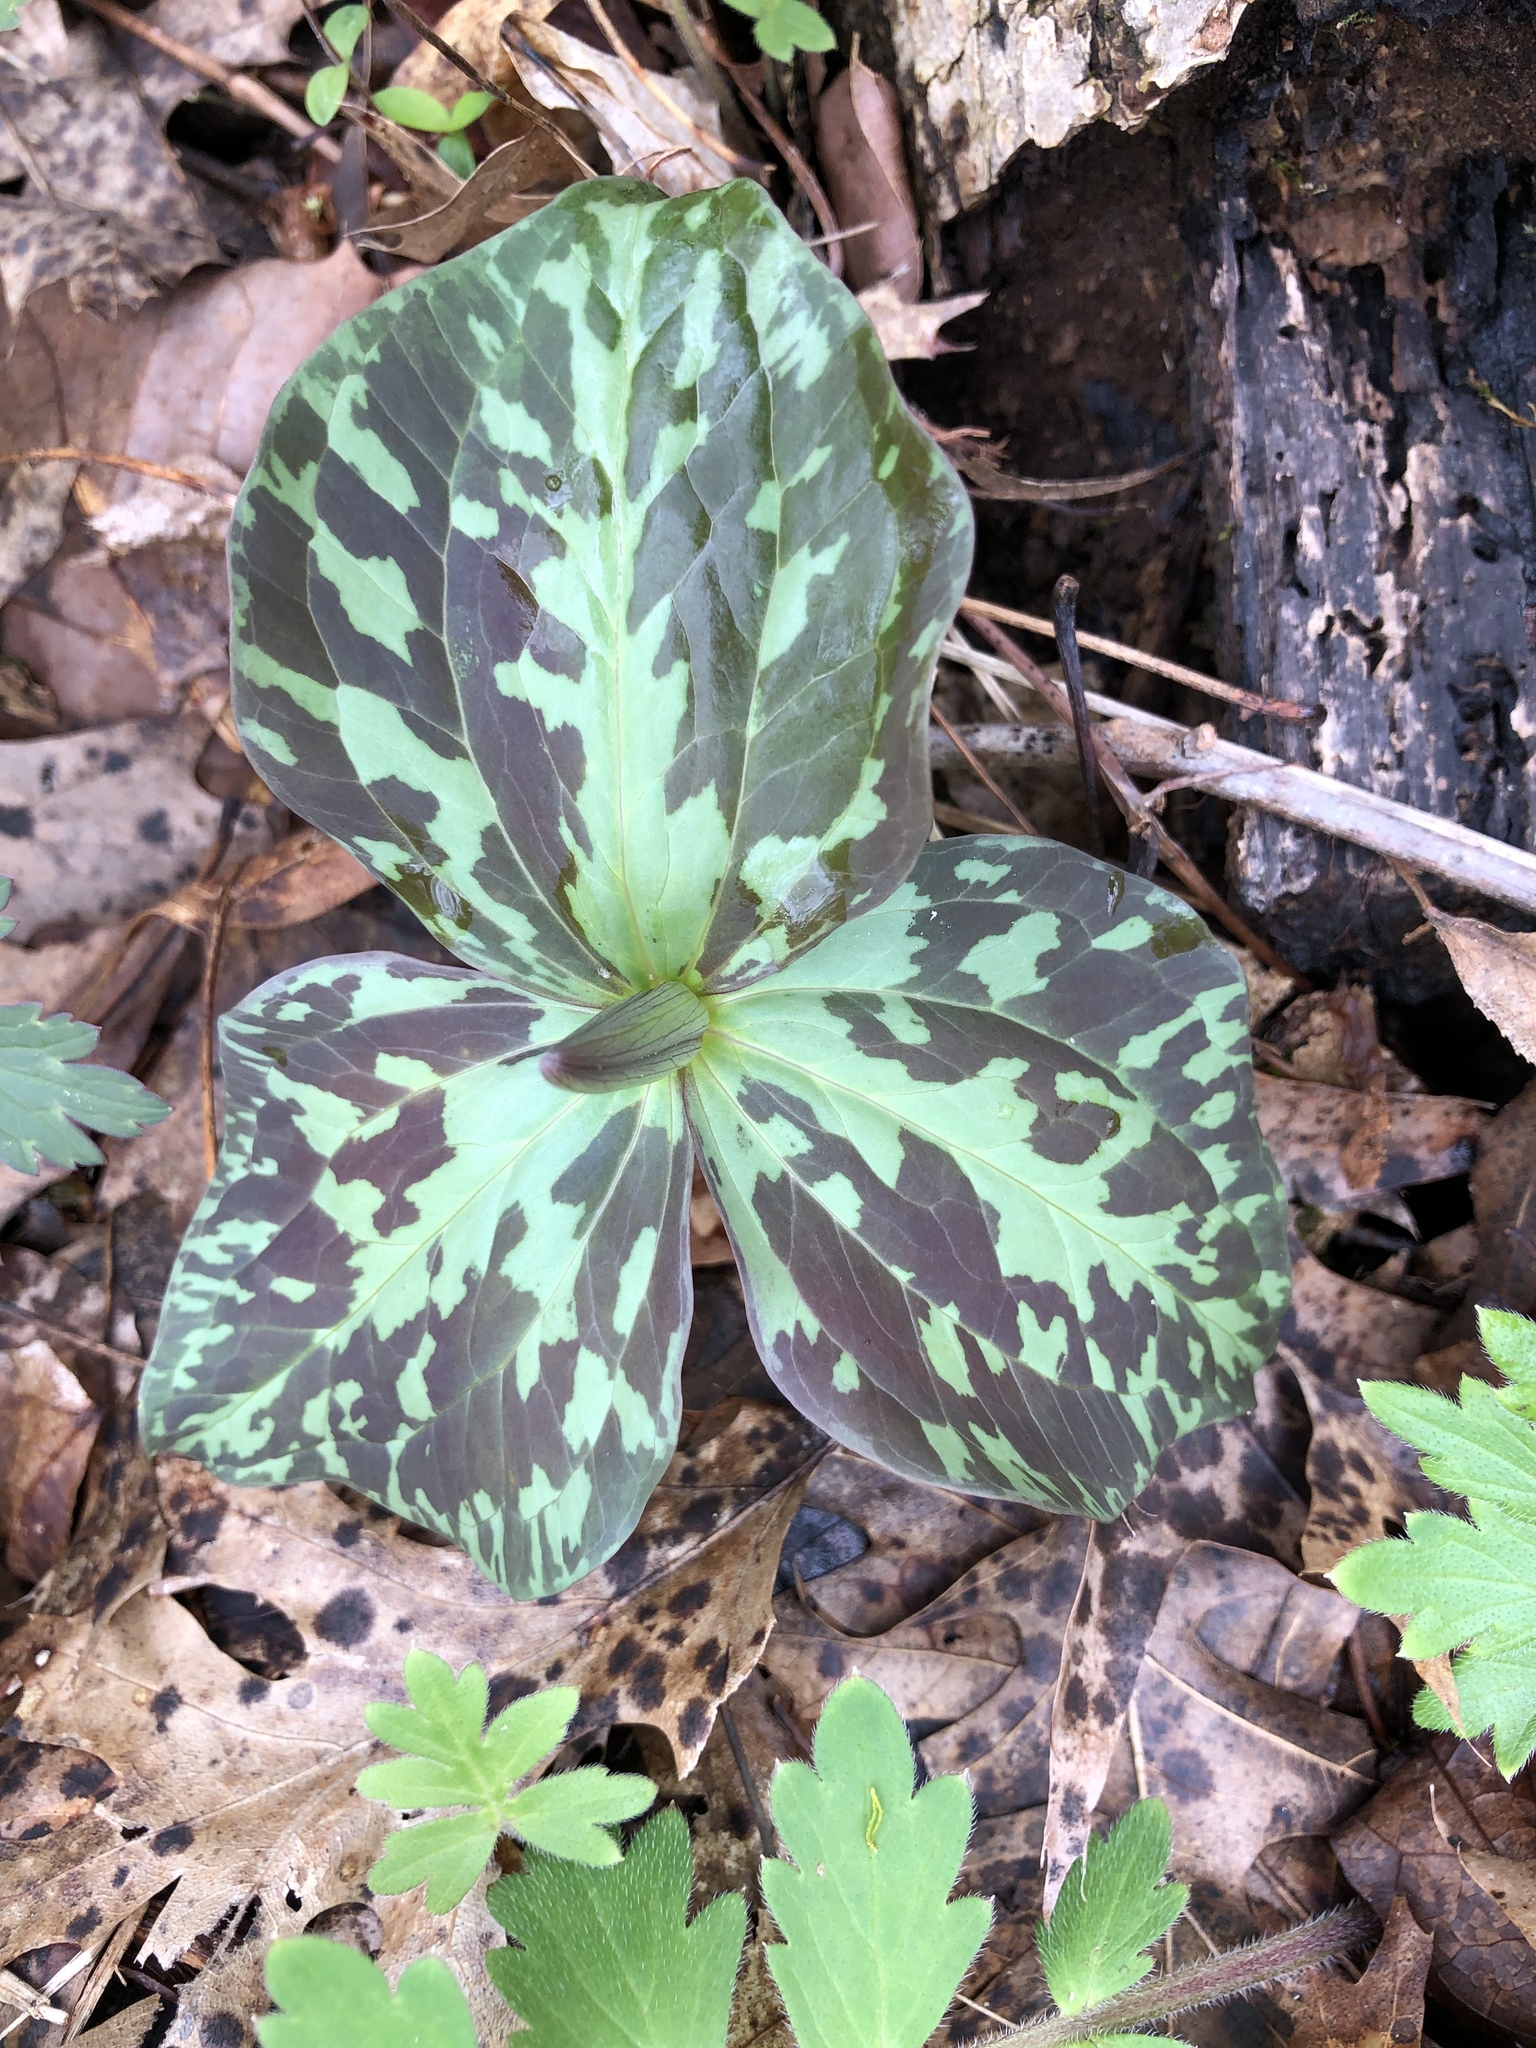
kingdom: Plantae
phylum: Tracheophyta
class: Liliopsida
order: Liliales
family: Melanthiaceae
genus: Trillium
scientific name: Trillium cuneatum
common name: Cuneate trillium
